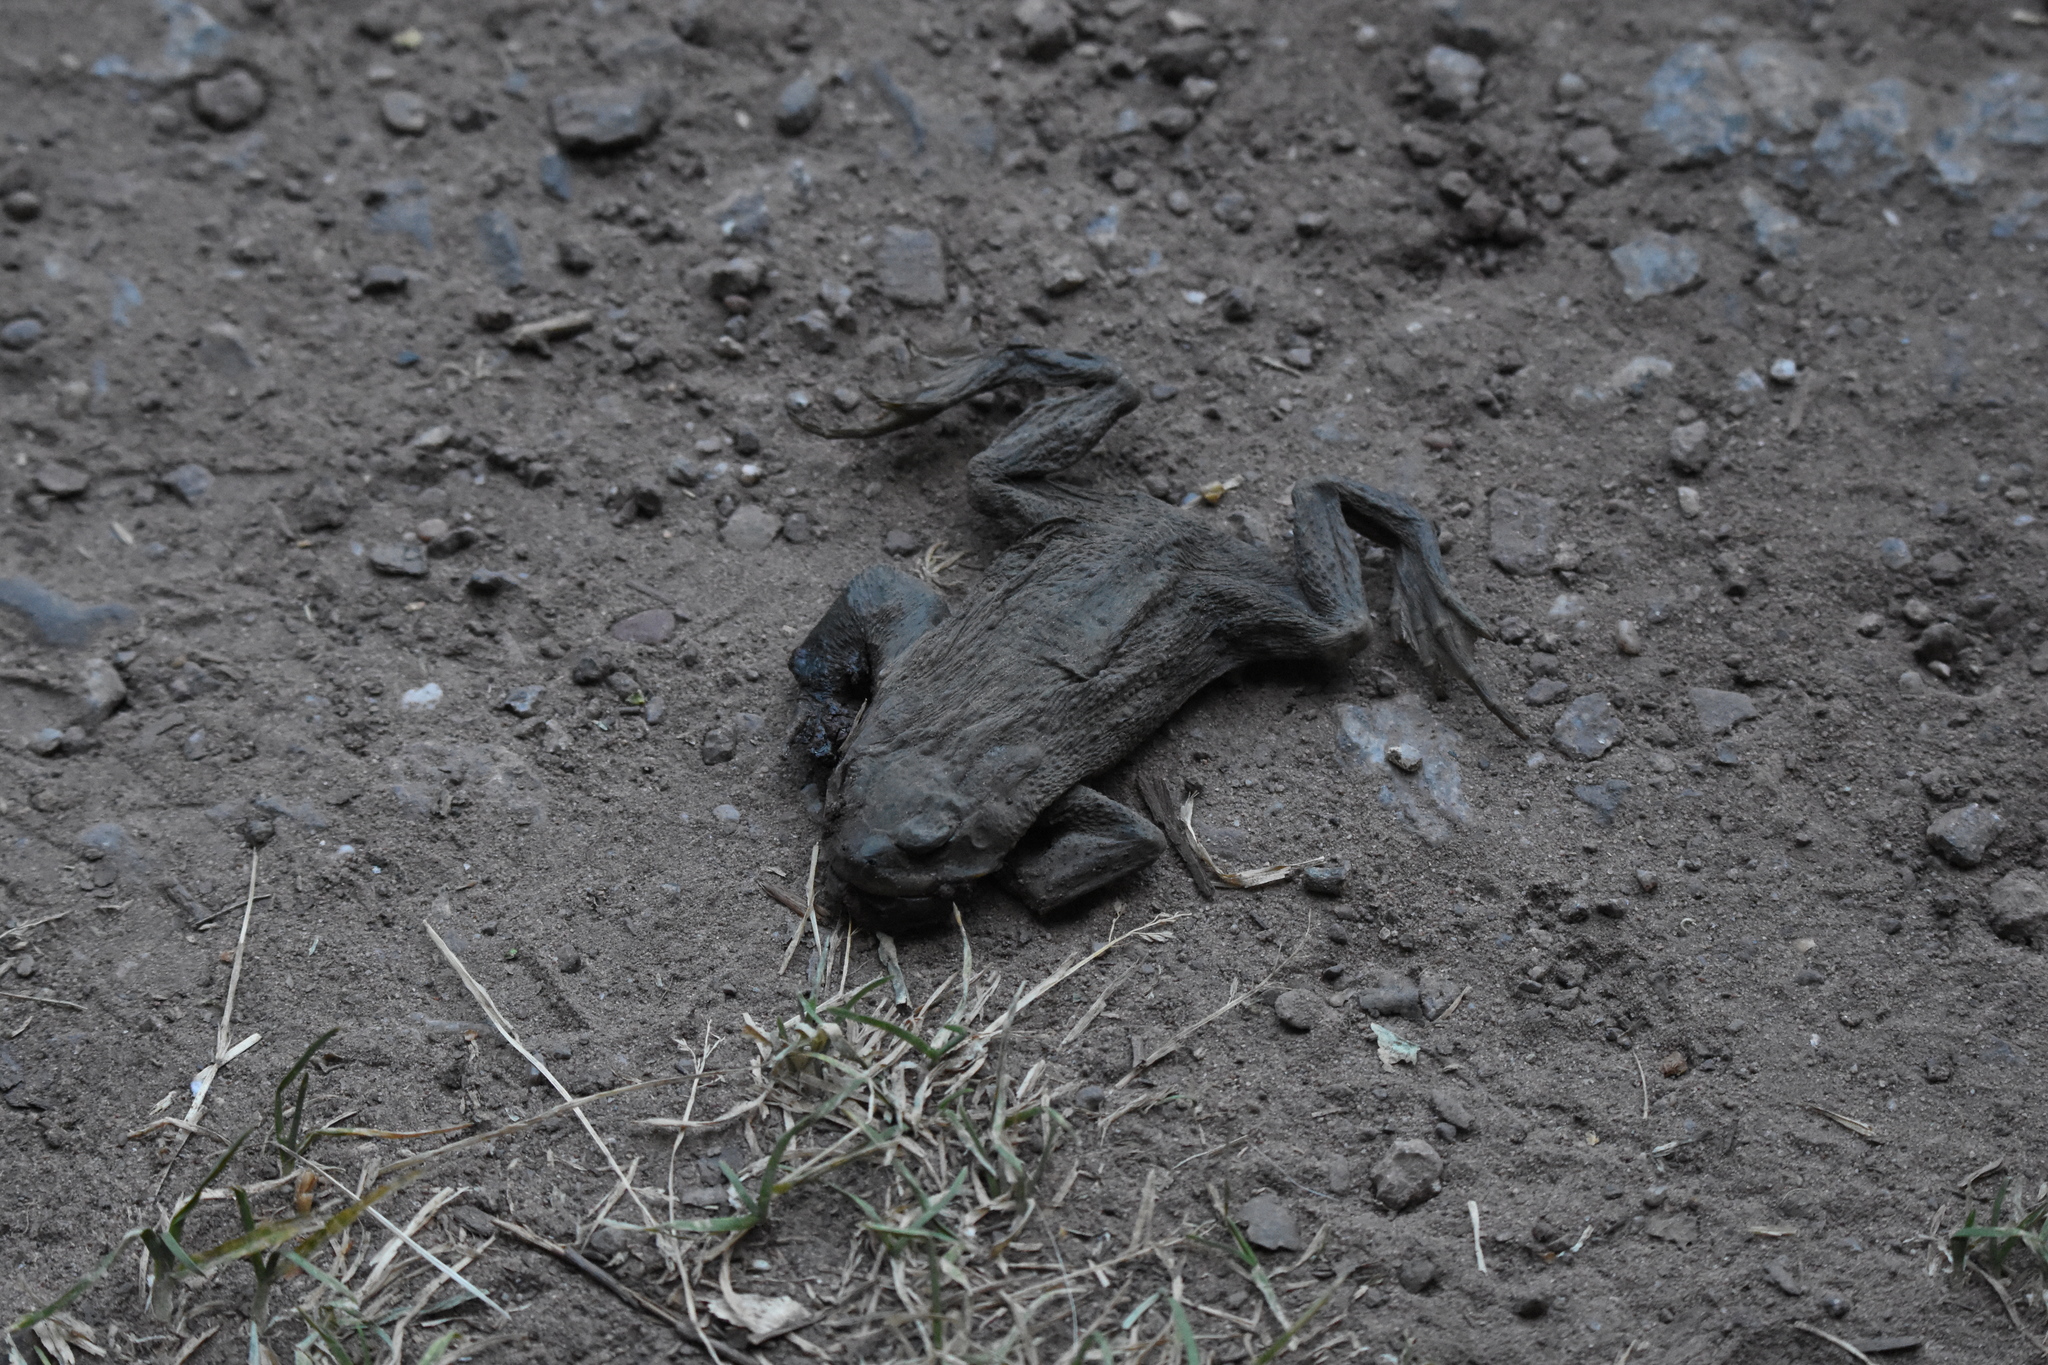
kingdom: Animalia
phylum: Chordata
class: Amphibia
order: Anura
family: Bufonidae
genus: Bufo
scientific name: Bufo bufo
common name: Common toad
